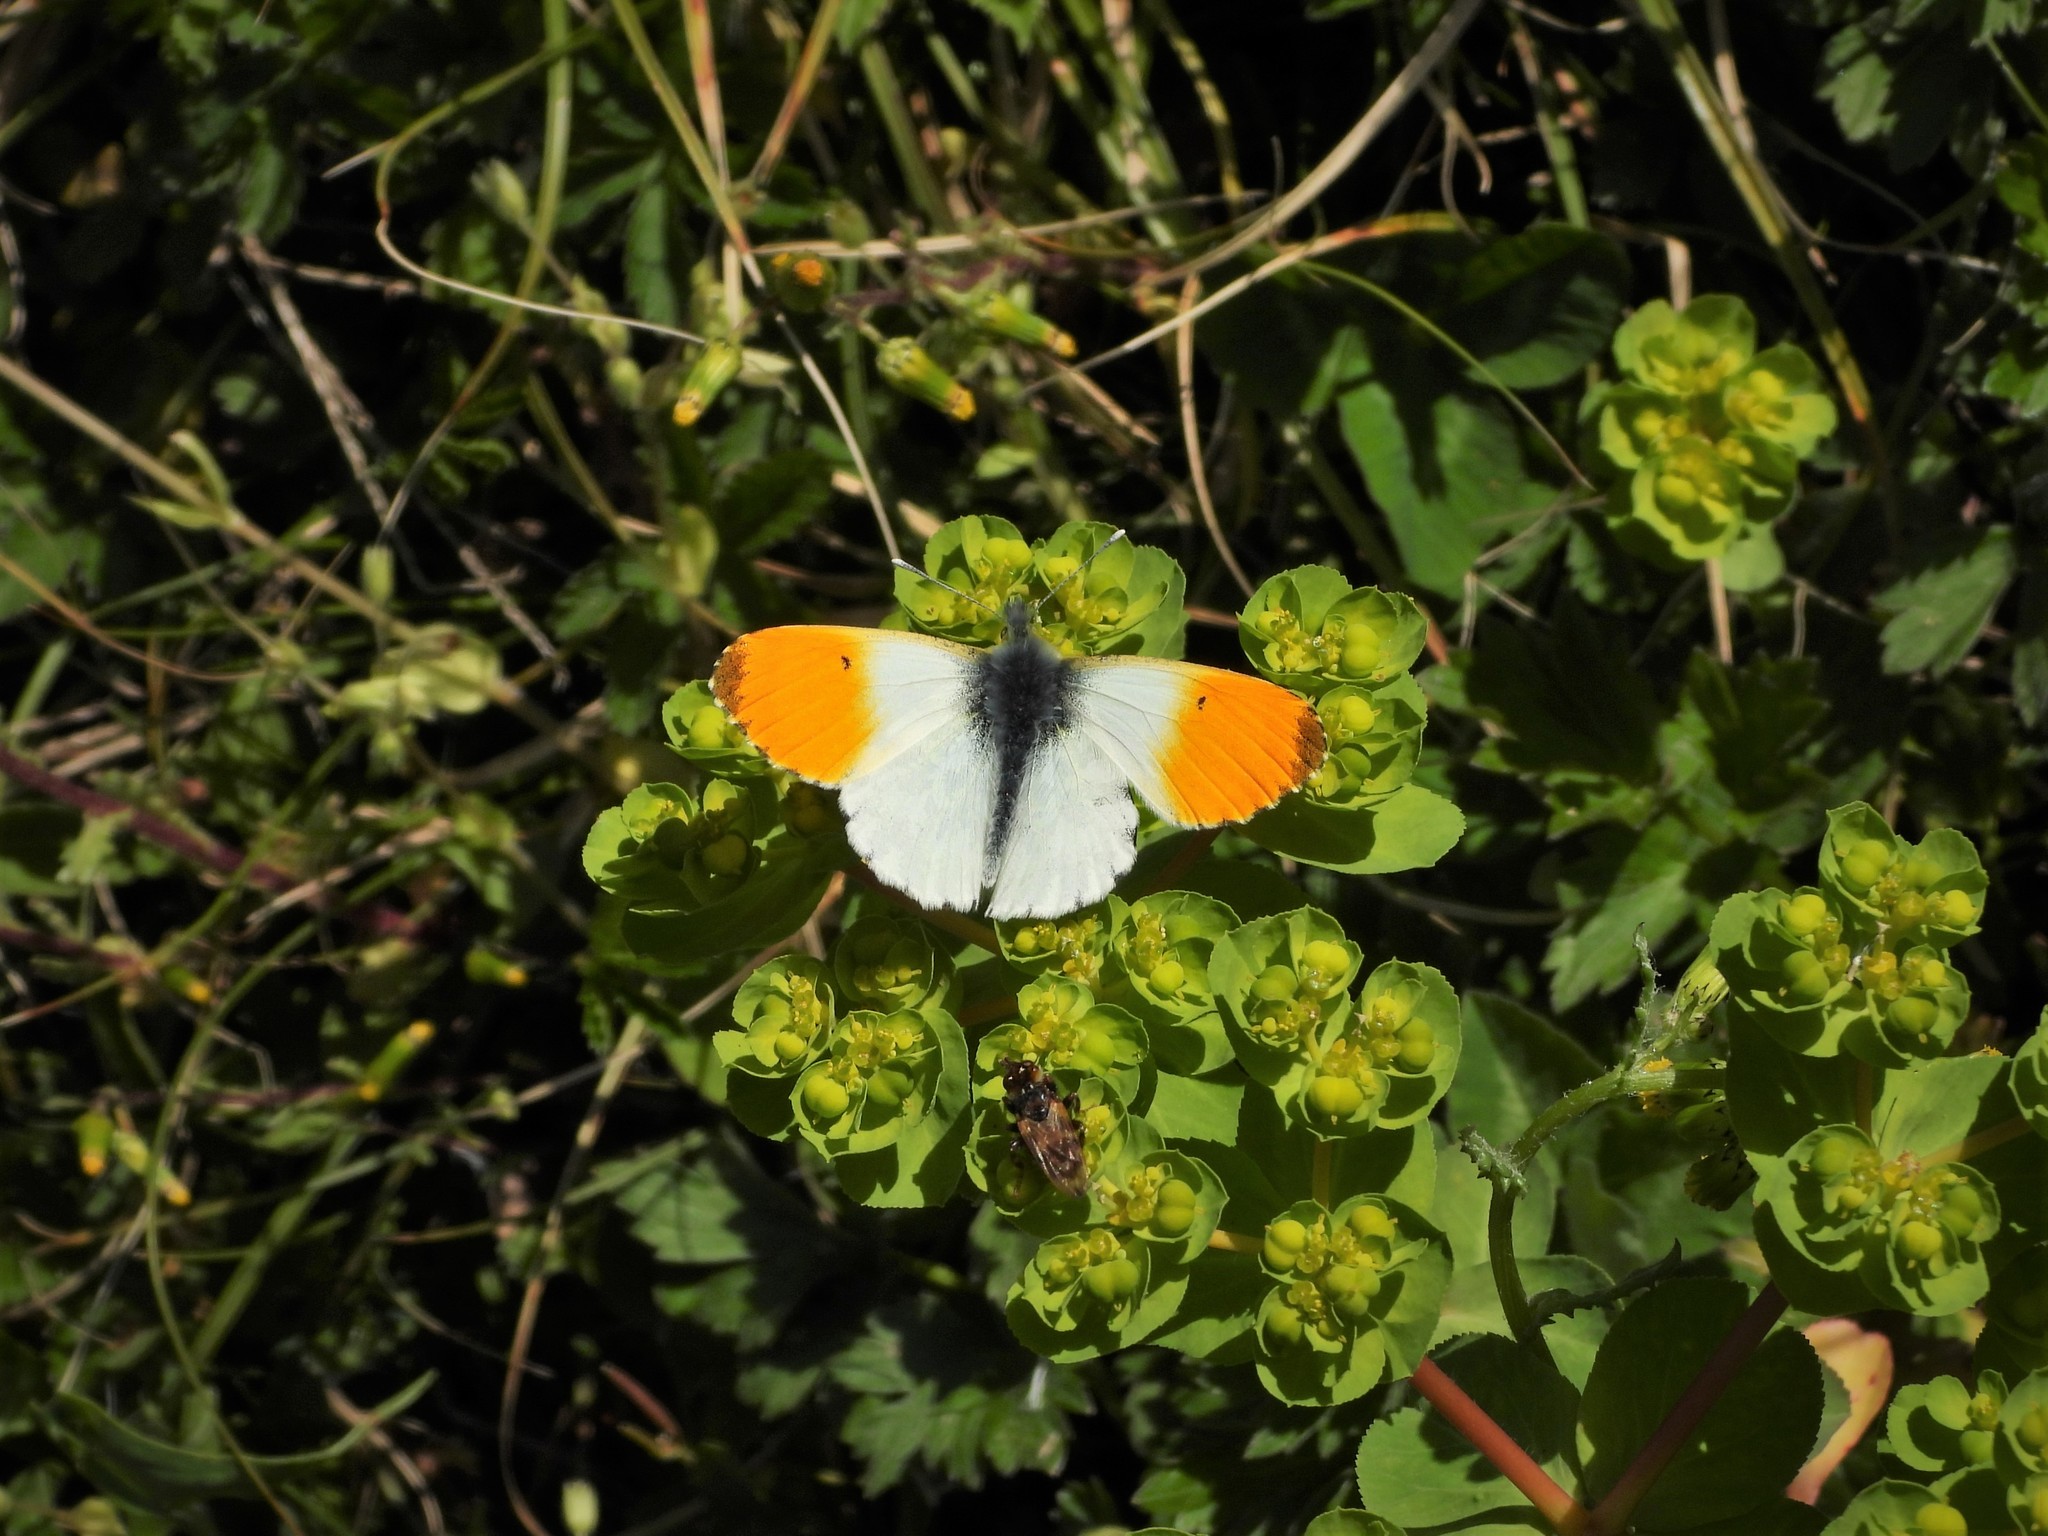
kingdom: Animalia
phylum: Arthropoda
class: Insecta
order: Lepidoptera
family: Pieridae
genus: Anthocharis
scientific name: Anthocharis cardamines
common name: Orange-tip
